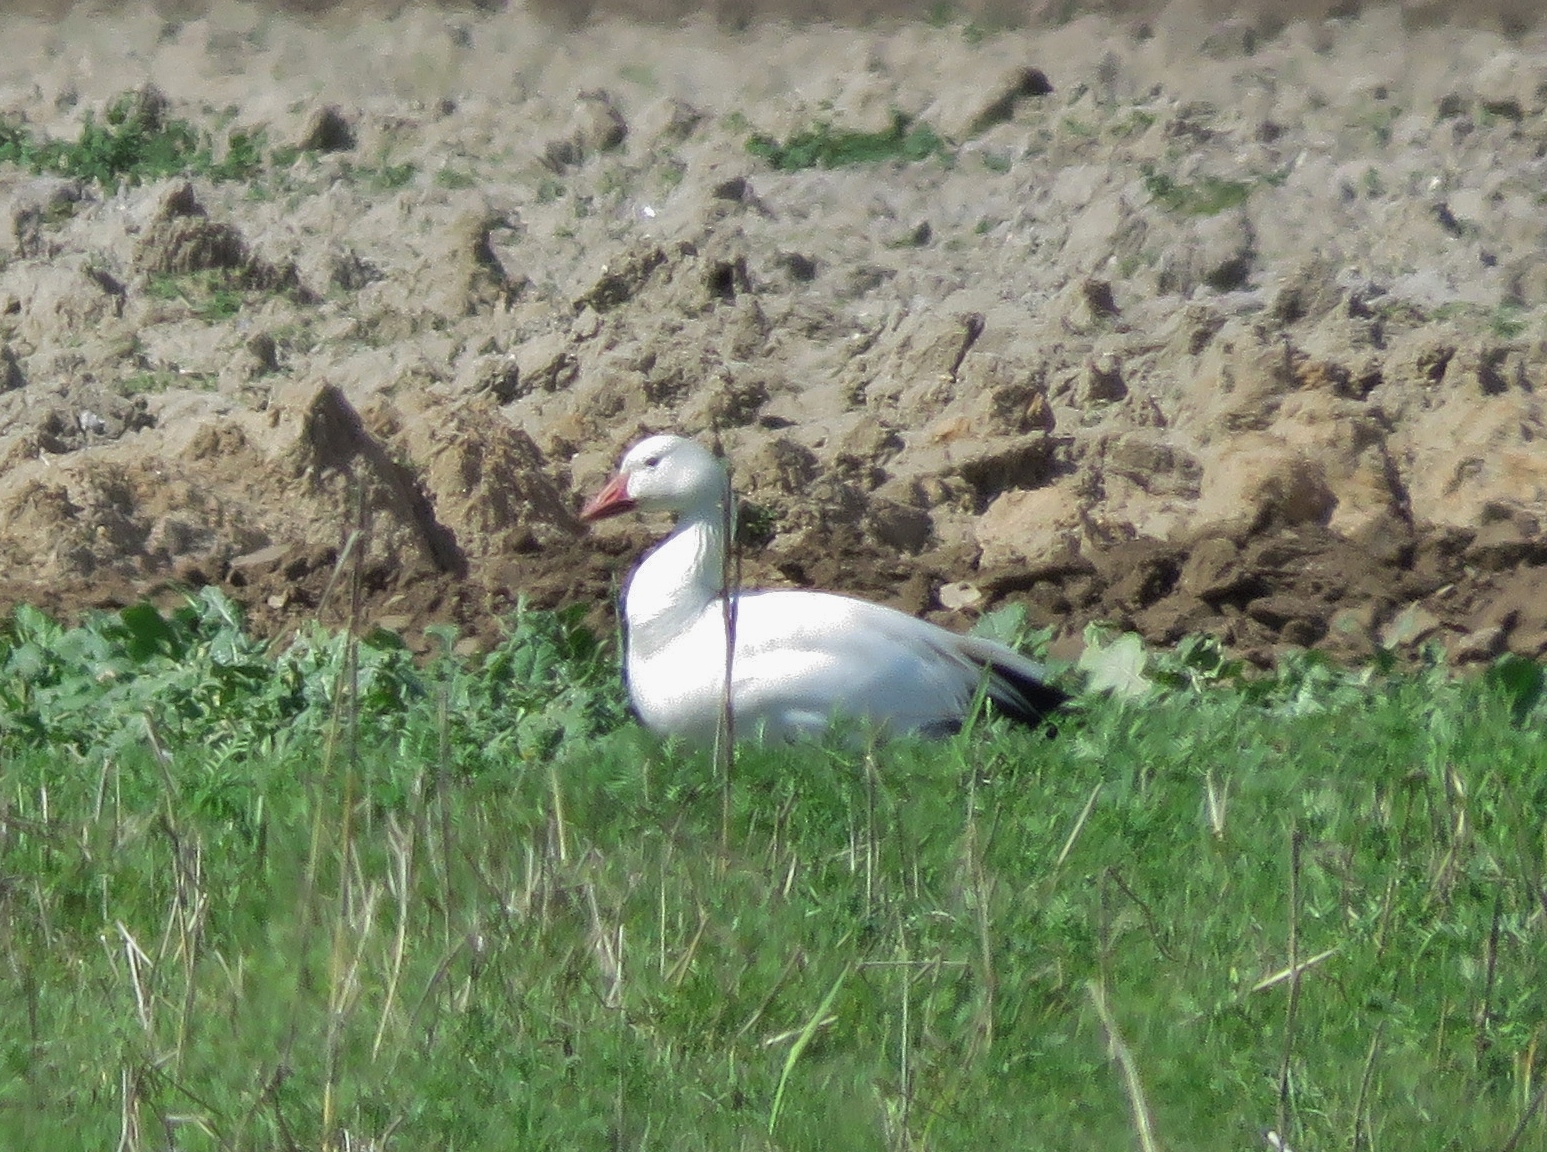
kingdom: Animalia
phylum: Chordata
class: Aves
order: Anseriformes
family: Anatidae
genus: Anser
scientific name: Anser caerulescens
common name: Snow goose
